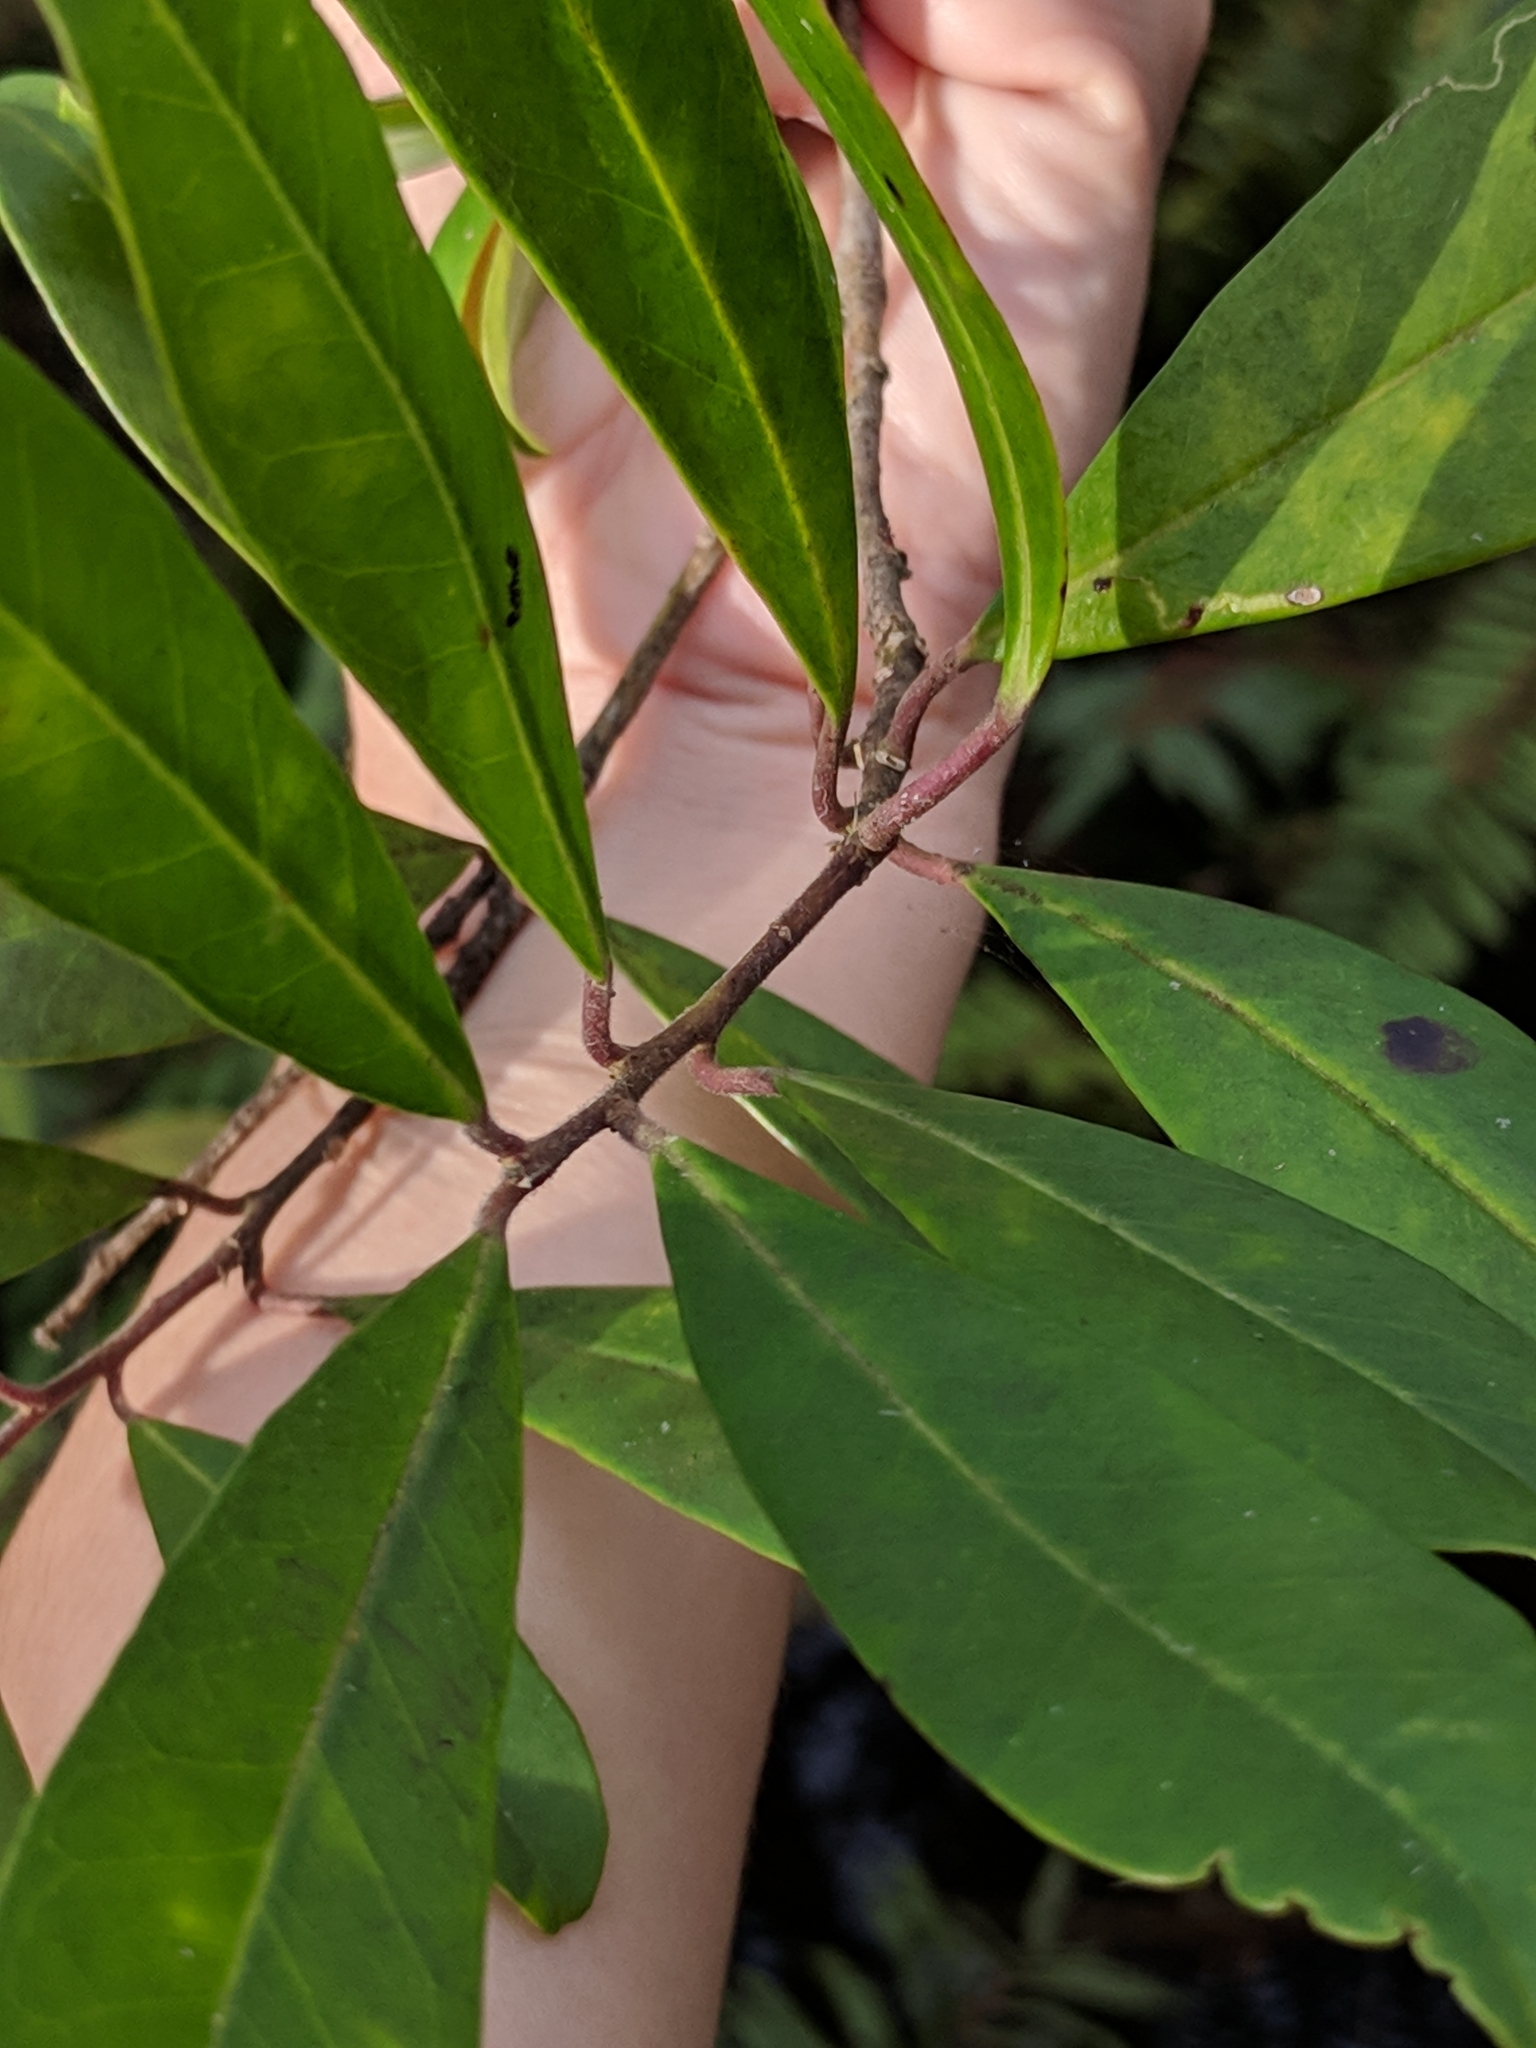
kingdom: Plantae
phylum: Tracheophyta
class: Magnoliopsida
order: Aquifoliales
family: Aquifoliaceae
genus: Ilex
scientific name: Ilex cassine
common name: Dahoon
